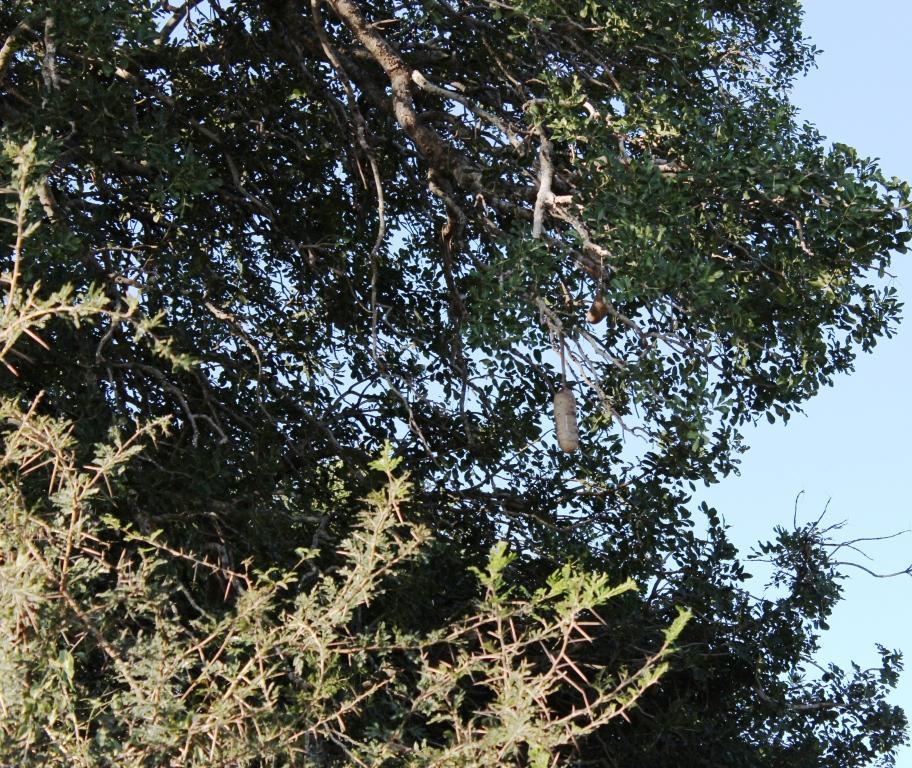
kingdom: Plantae
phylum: Tracheophyta
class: Magnoliopsida
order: Lamiales
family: Bignoniaceae
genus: Kigelia
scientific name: Kigelia africana
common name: Sausage tree
